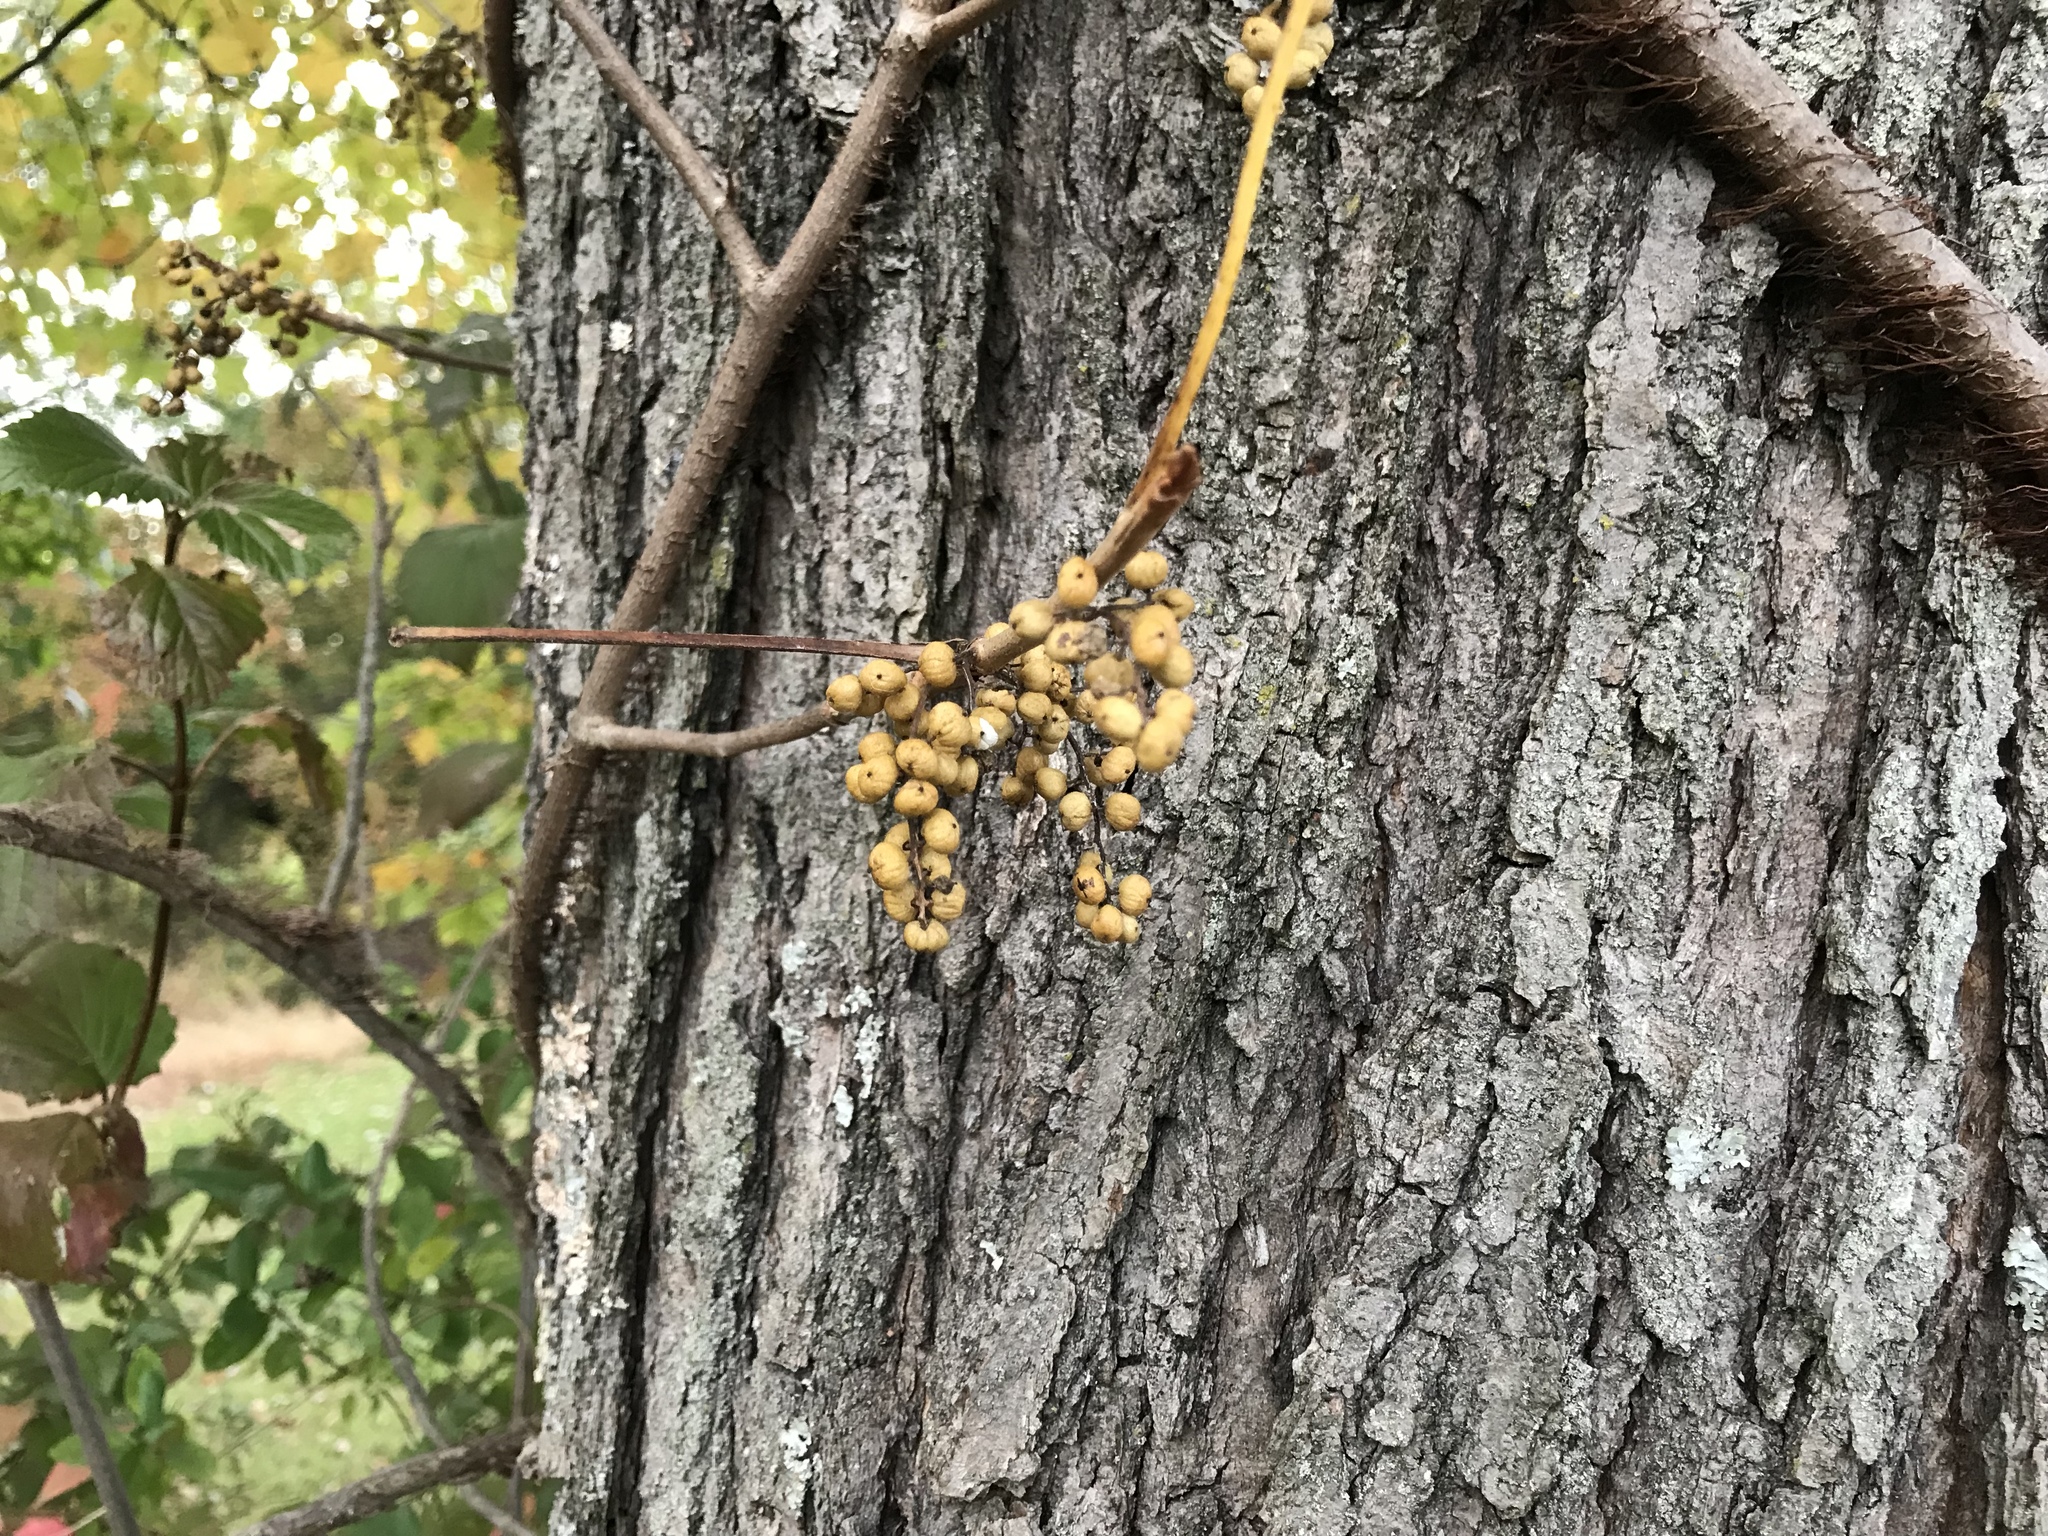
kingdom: Plantae
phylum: Tracheophyta
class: Magnoliopsida
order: Sapindales
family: Anacardiaceae
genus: Toxicodendron
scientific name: Toxicodendron radicans
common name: Poison ivy
